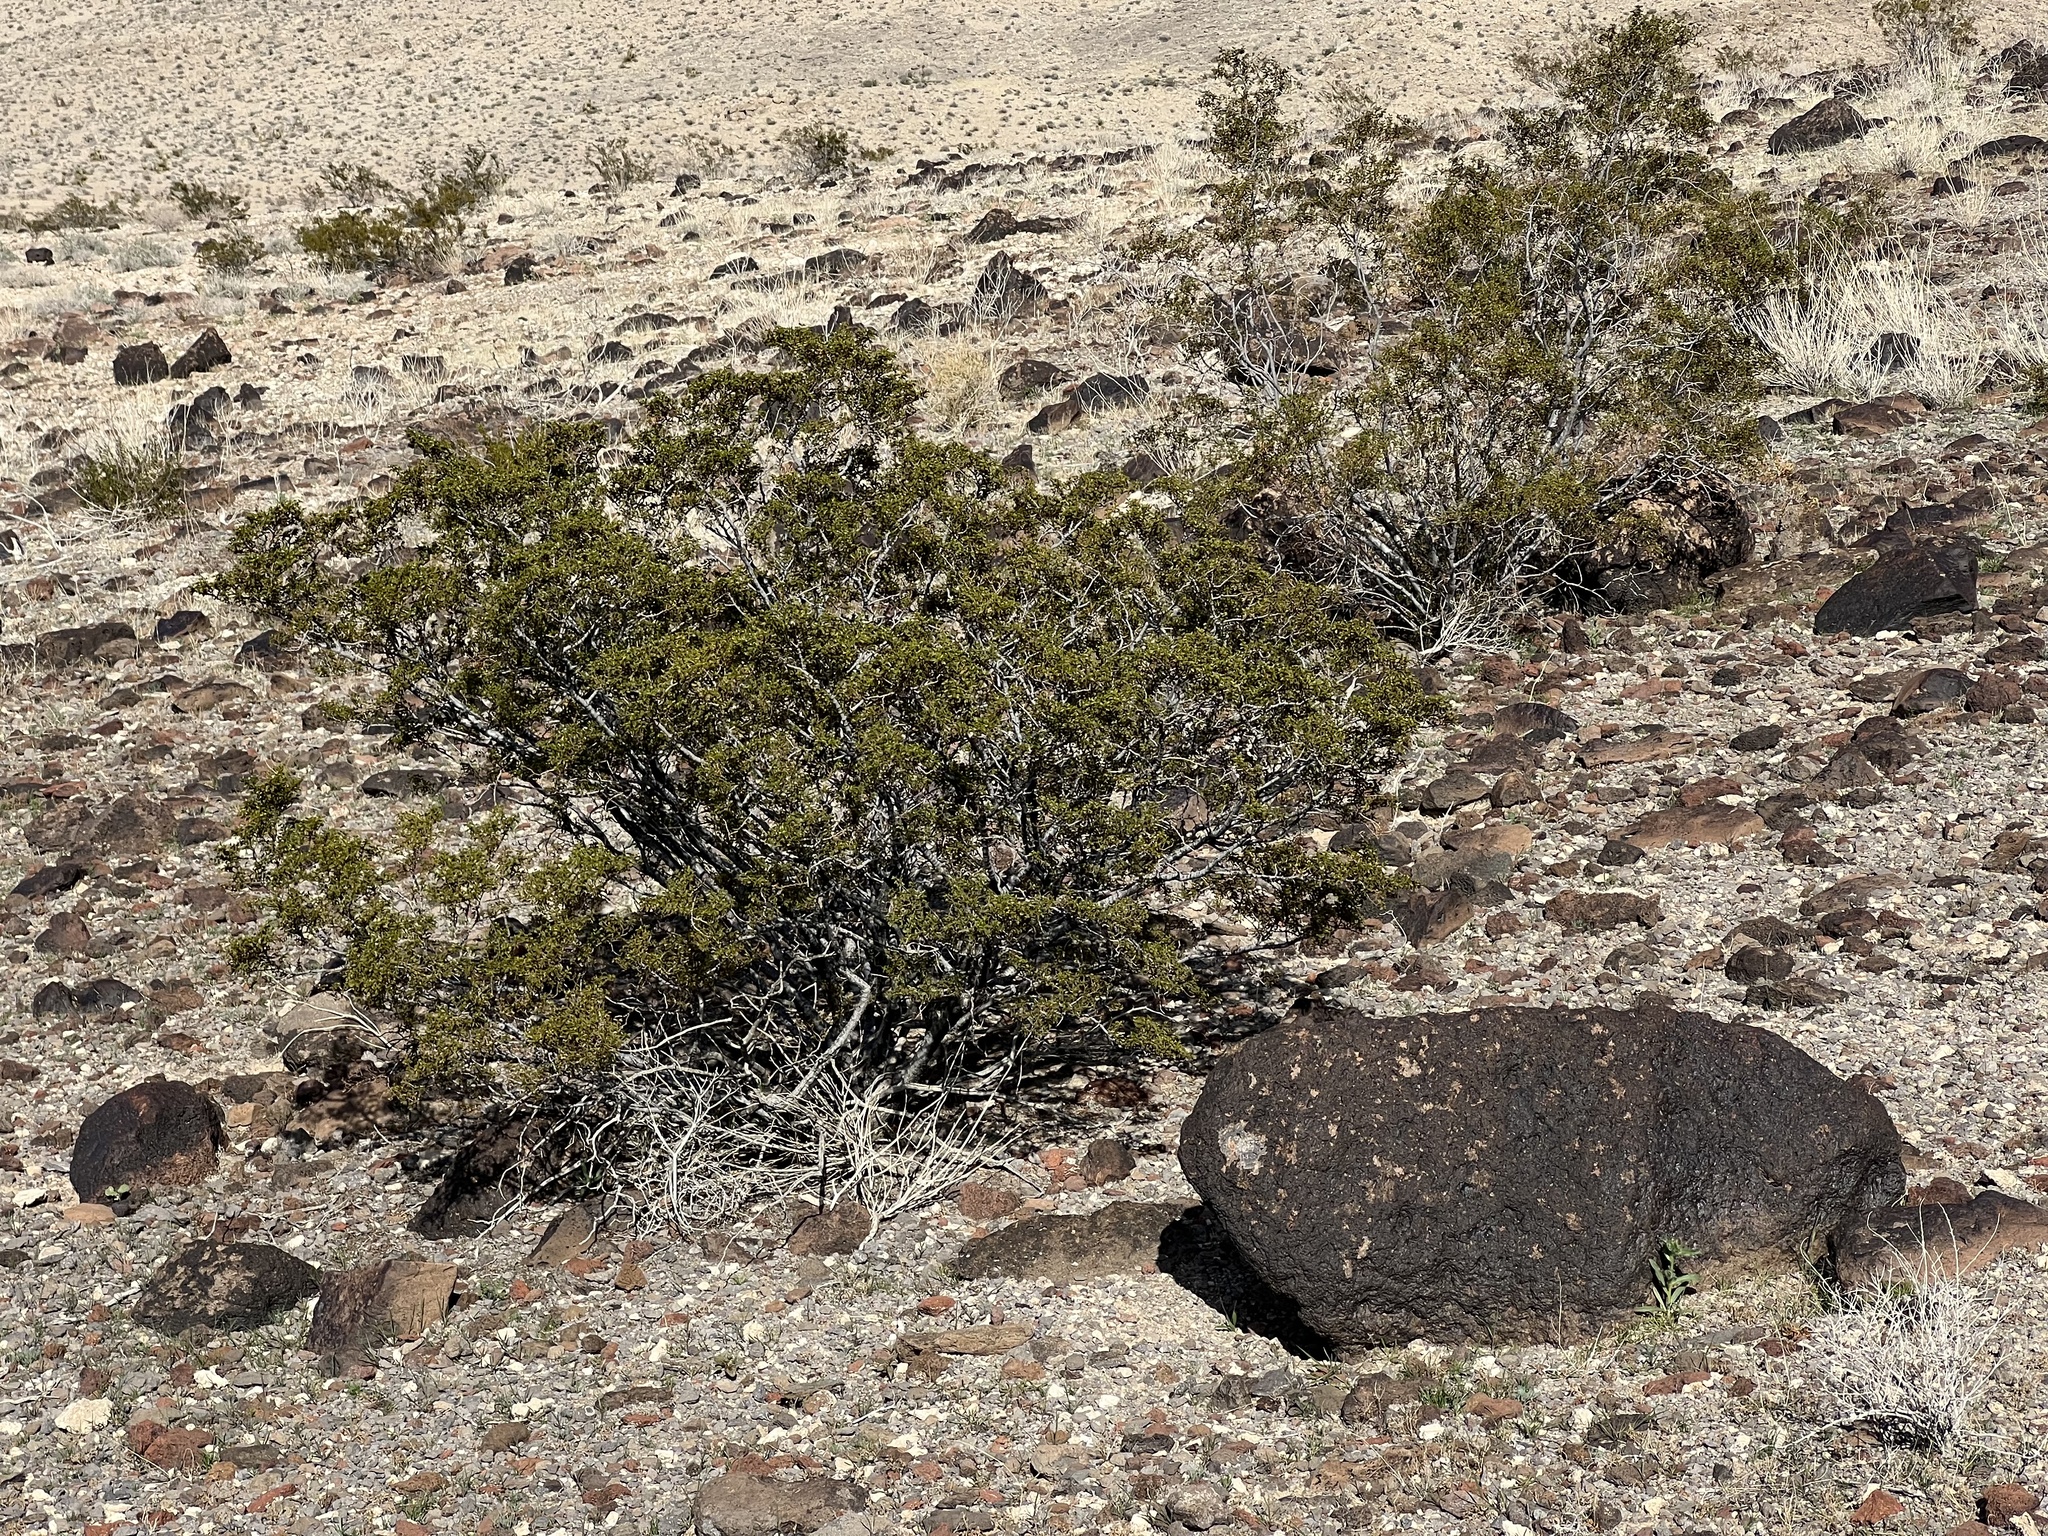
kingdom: Plantae
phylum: Tracheophyta
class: Magnoliopsida
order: Zygophyllales
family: Zygophyllaceae
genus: Larrea
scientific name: Larrea tridentata
